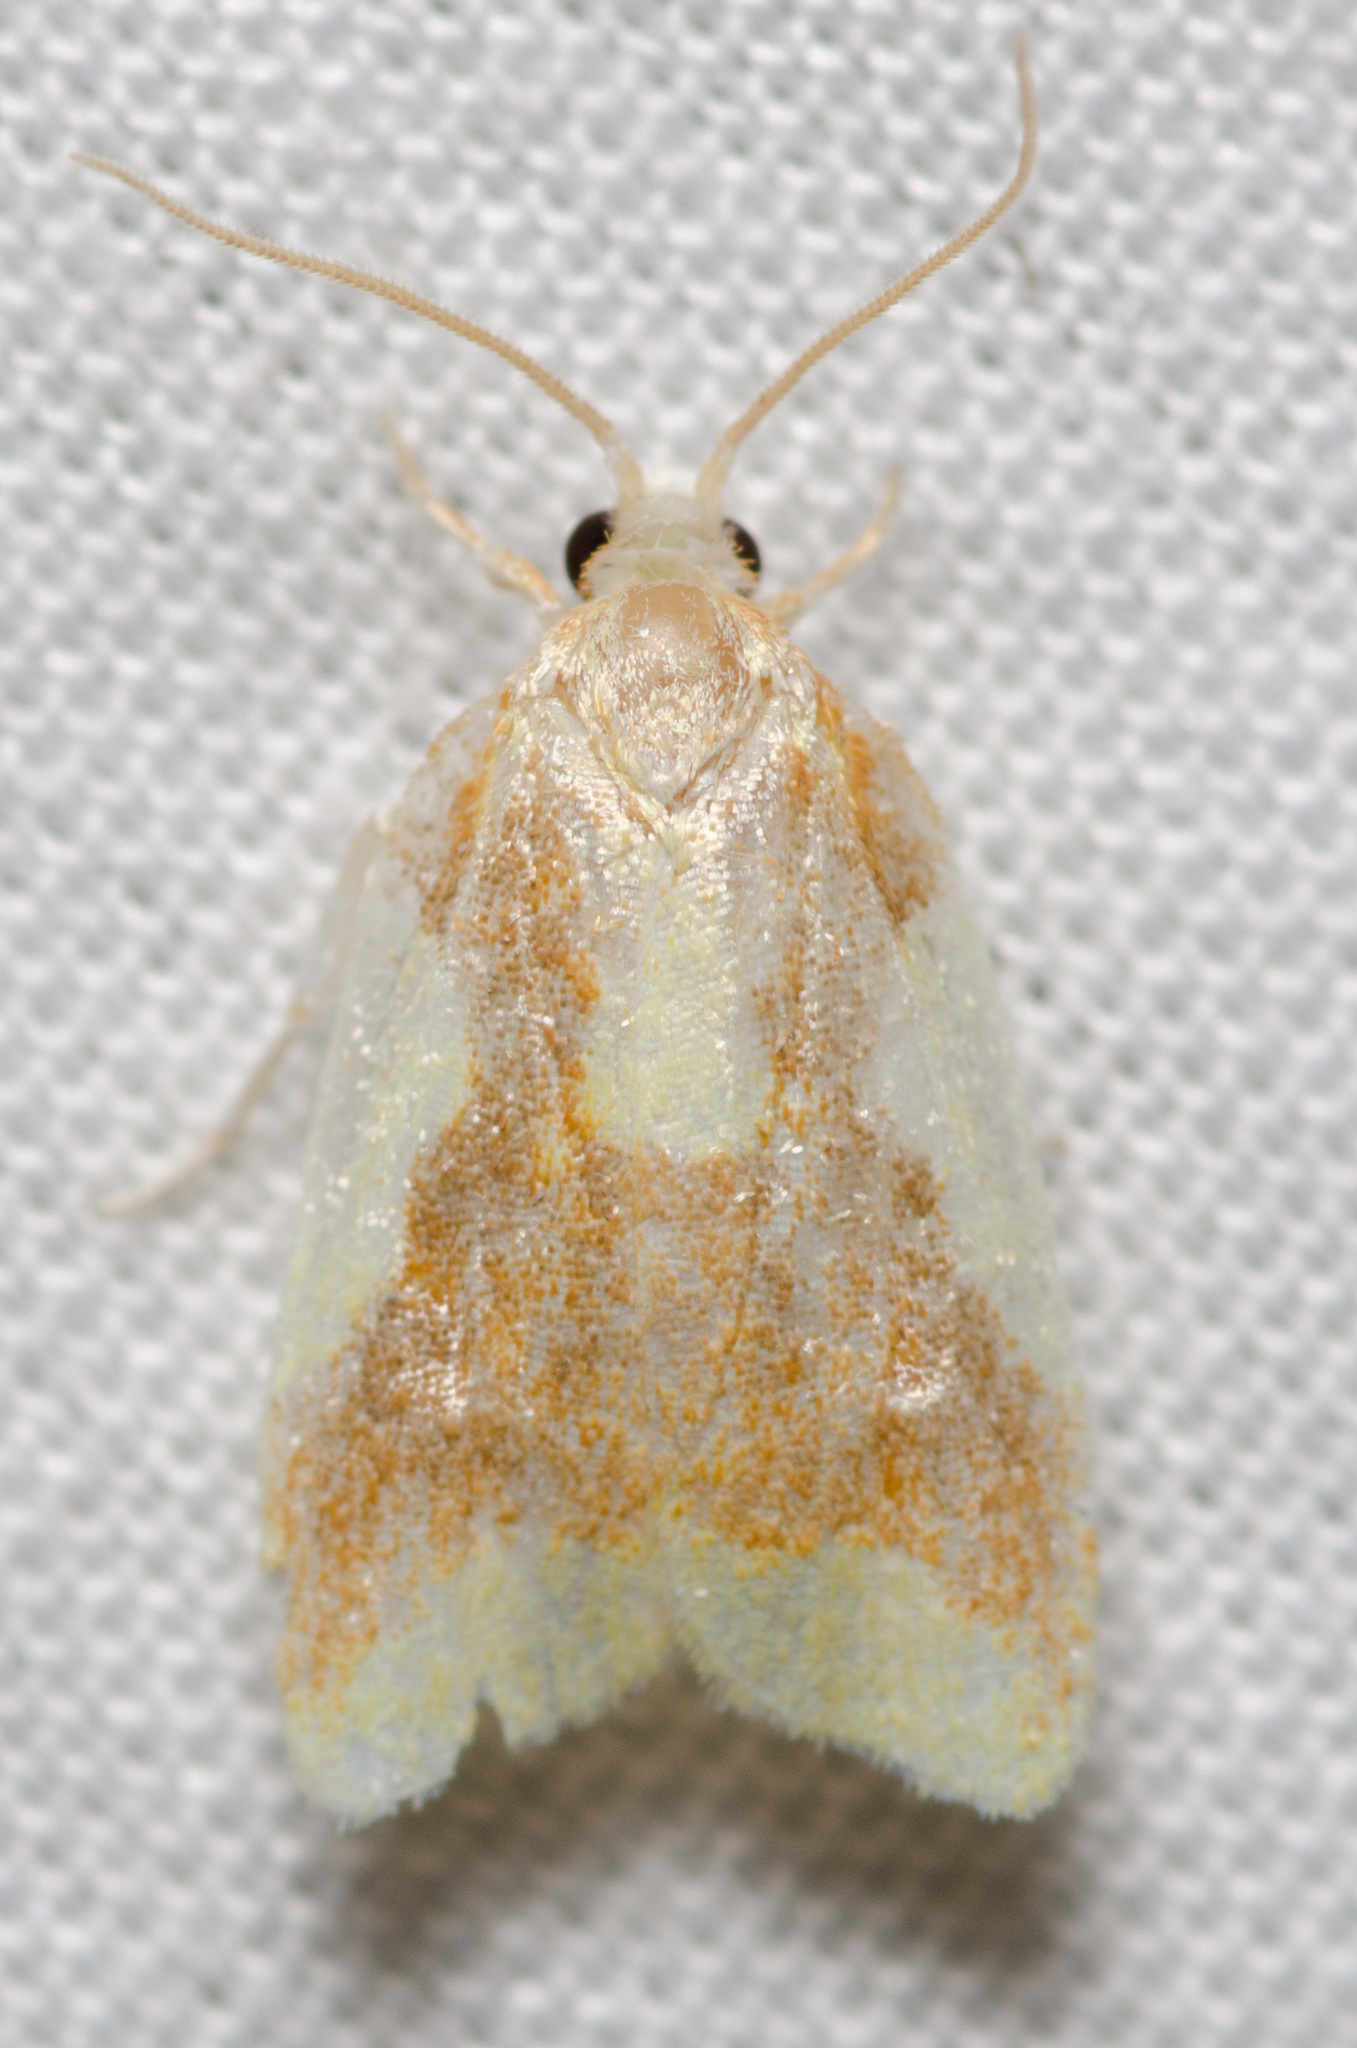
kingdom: Animalia
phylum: Arthropoda
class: Insecta
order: Lepidoptera
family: Tortricidae
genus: Sparganothis
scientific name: Sparganothis pulcherrimana
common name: Beautiful sparganothis
